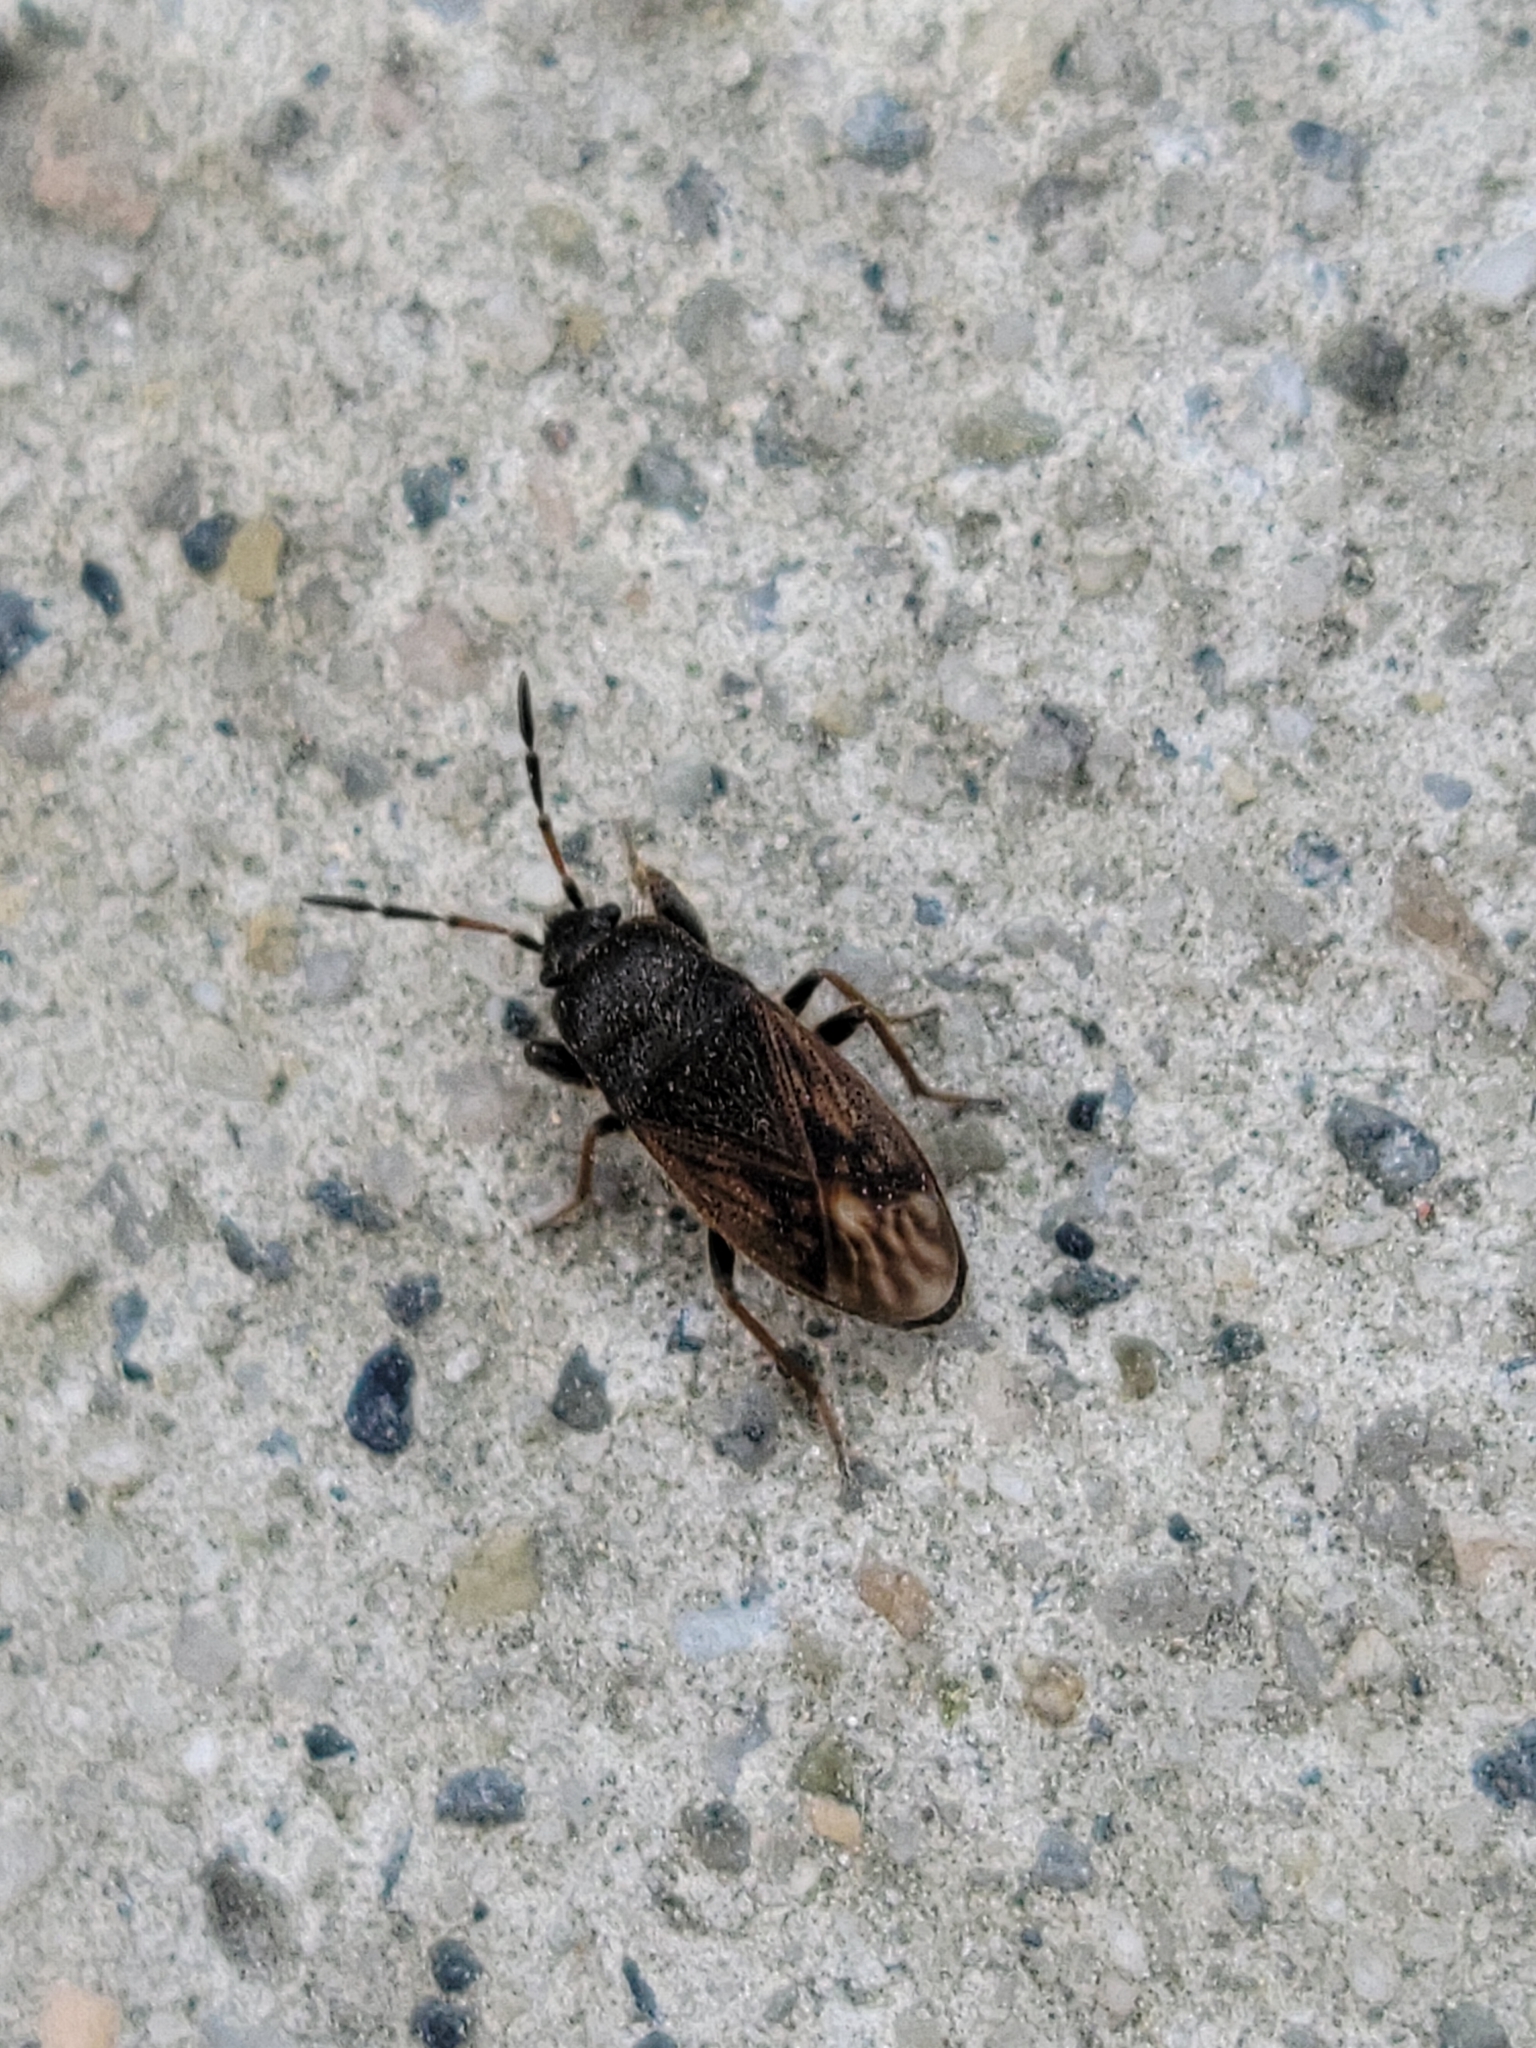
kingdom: Animalia
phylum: Arthropoda
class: Insecta
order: Hemiptera
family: Rhyparochromidae
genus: Megalonotus
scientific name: Megalonotus sabulicola
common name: Seed bug
